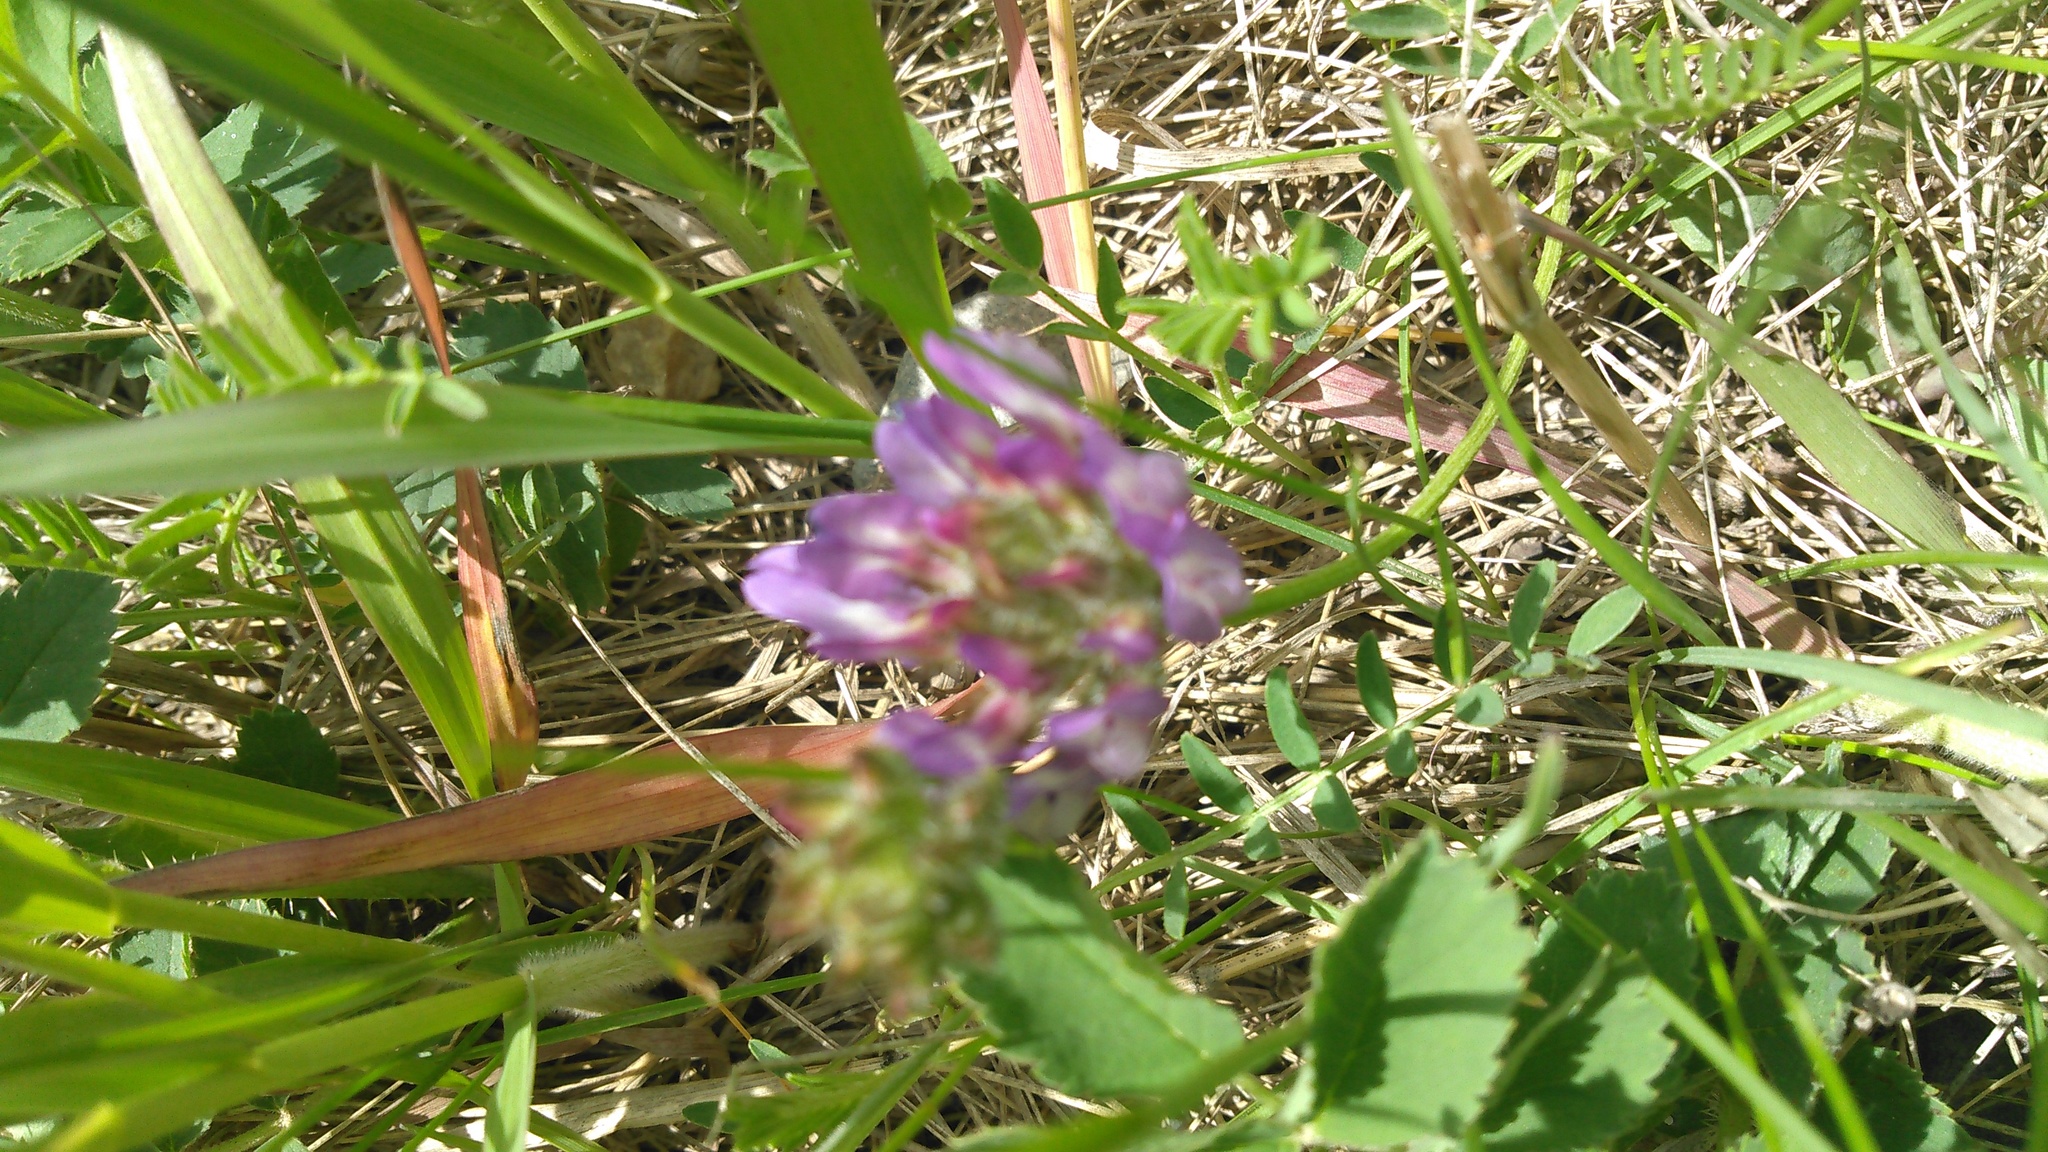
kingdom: Plantae
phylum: Tracheophyta
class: Magnoliopsida
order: Fabales
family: Fabaceae
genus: Astragalus
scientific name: Astragalus agrestis
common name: Field milk-vetch
